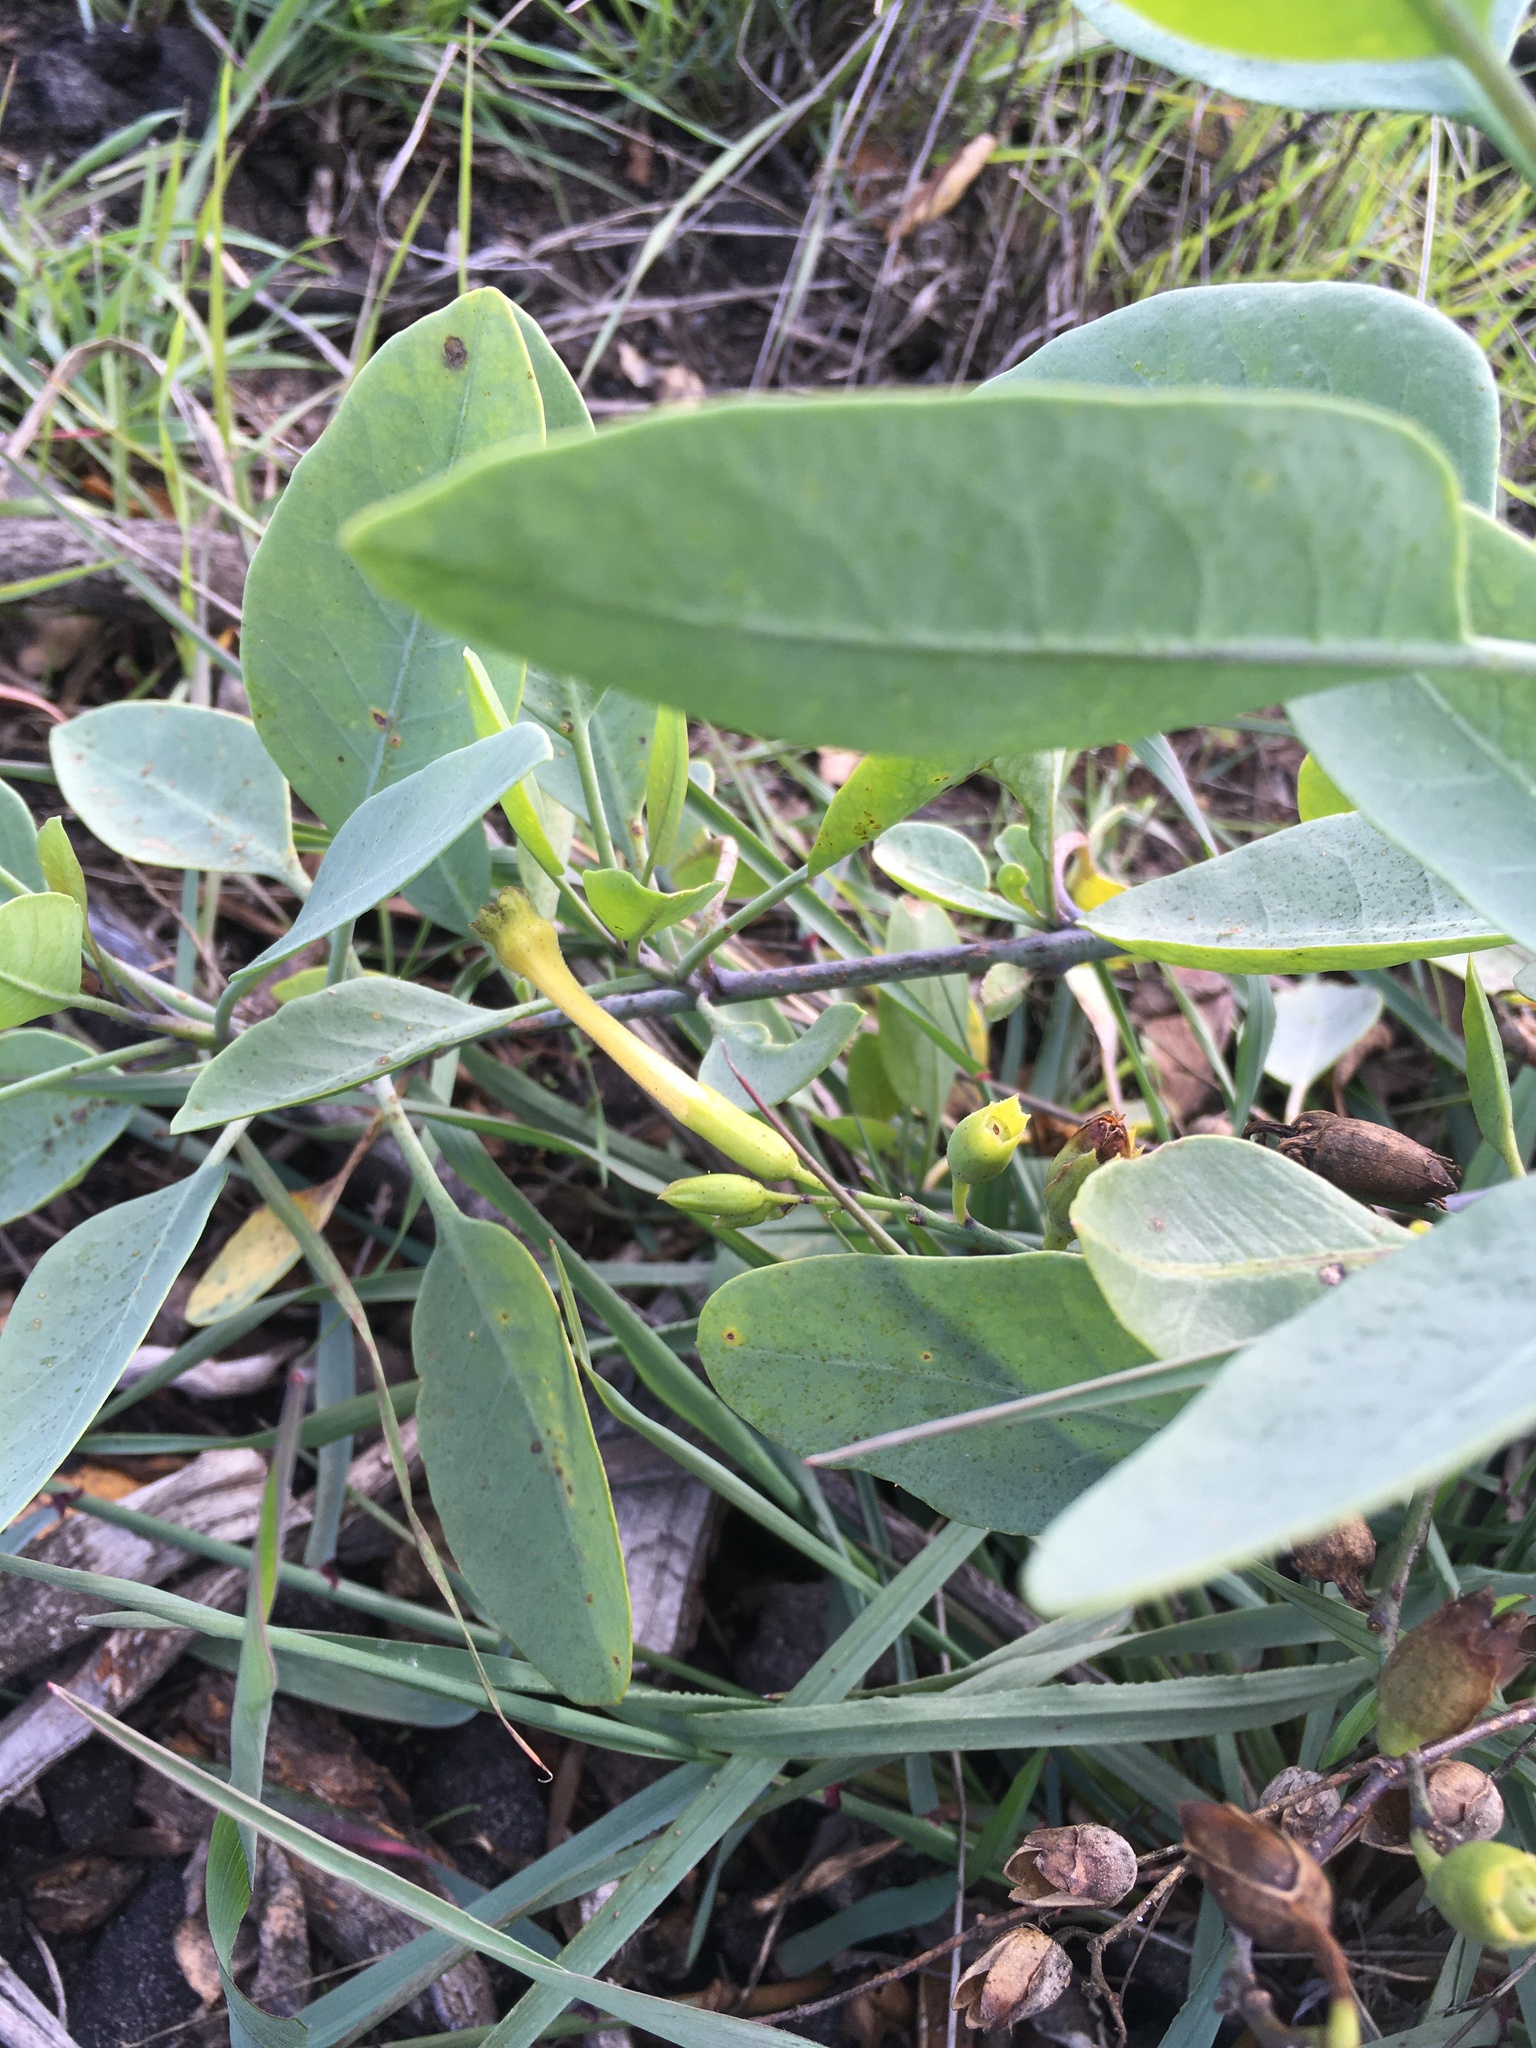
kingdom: Plantae
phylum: Tracheophyta
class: Magnoliopsida
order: Solanales
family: Solanaceae
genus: Nicotiana
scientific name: Nicotiana glauca
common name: Tree tobacco
